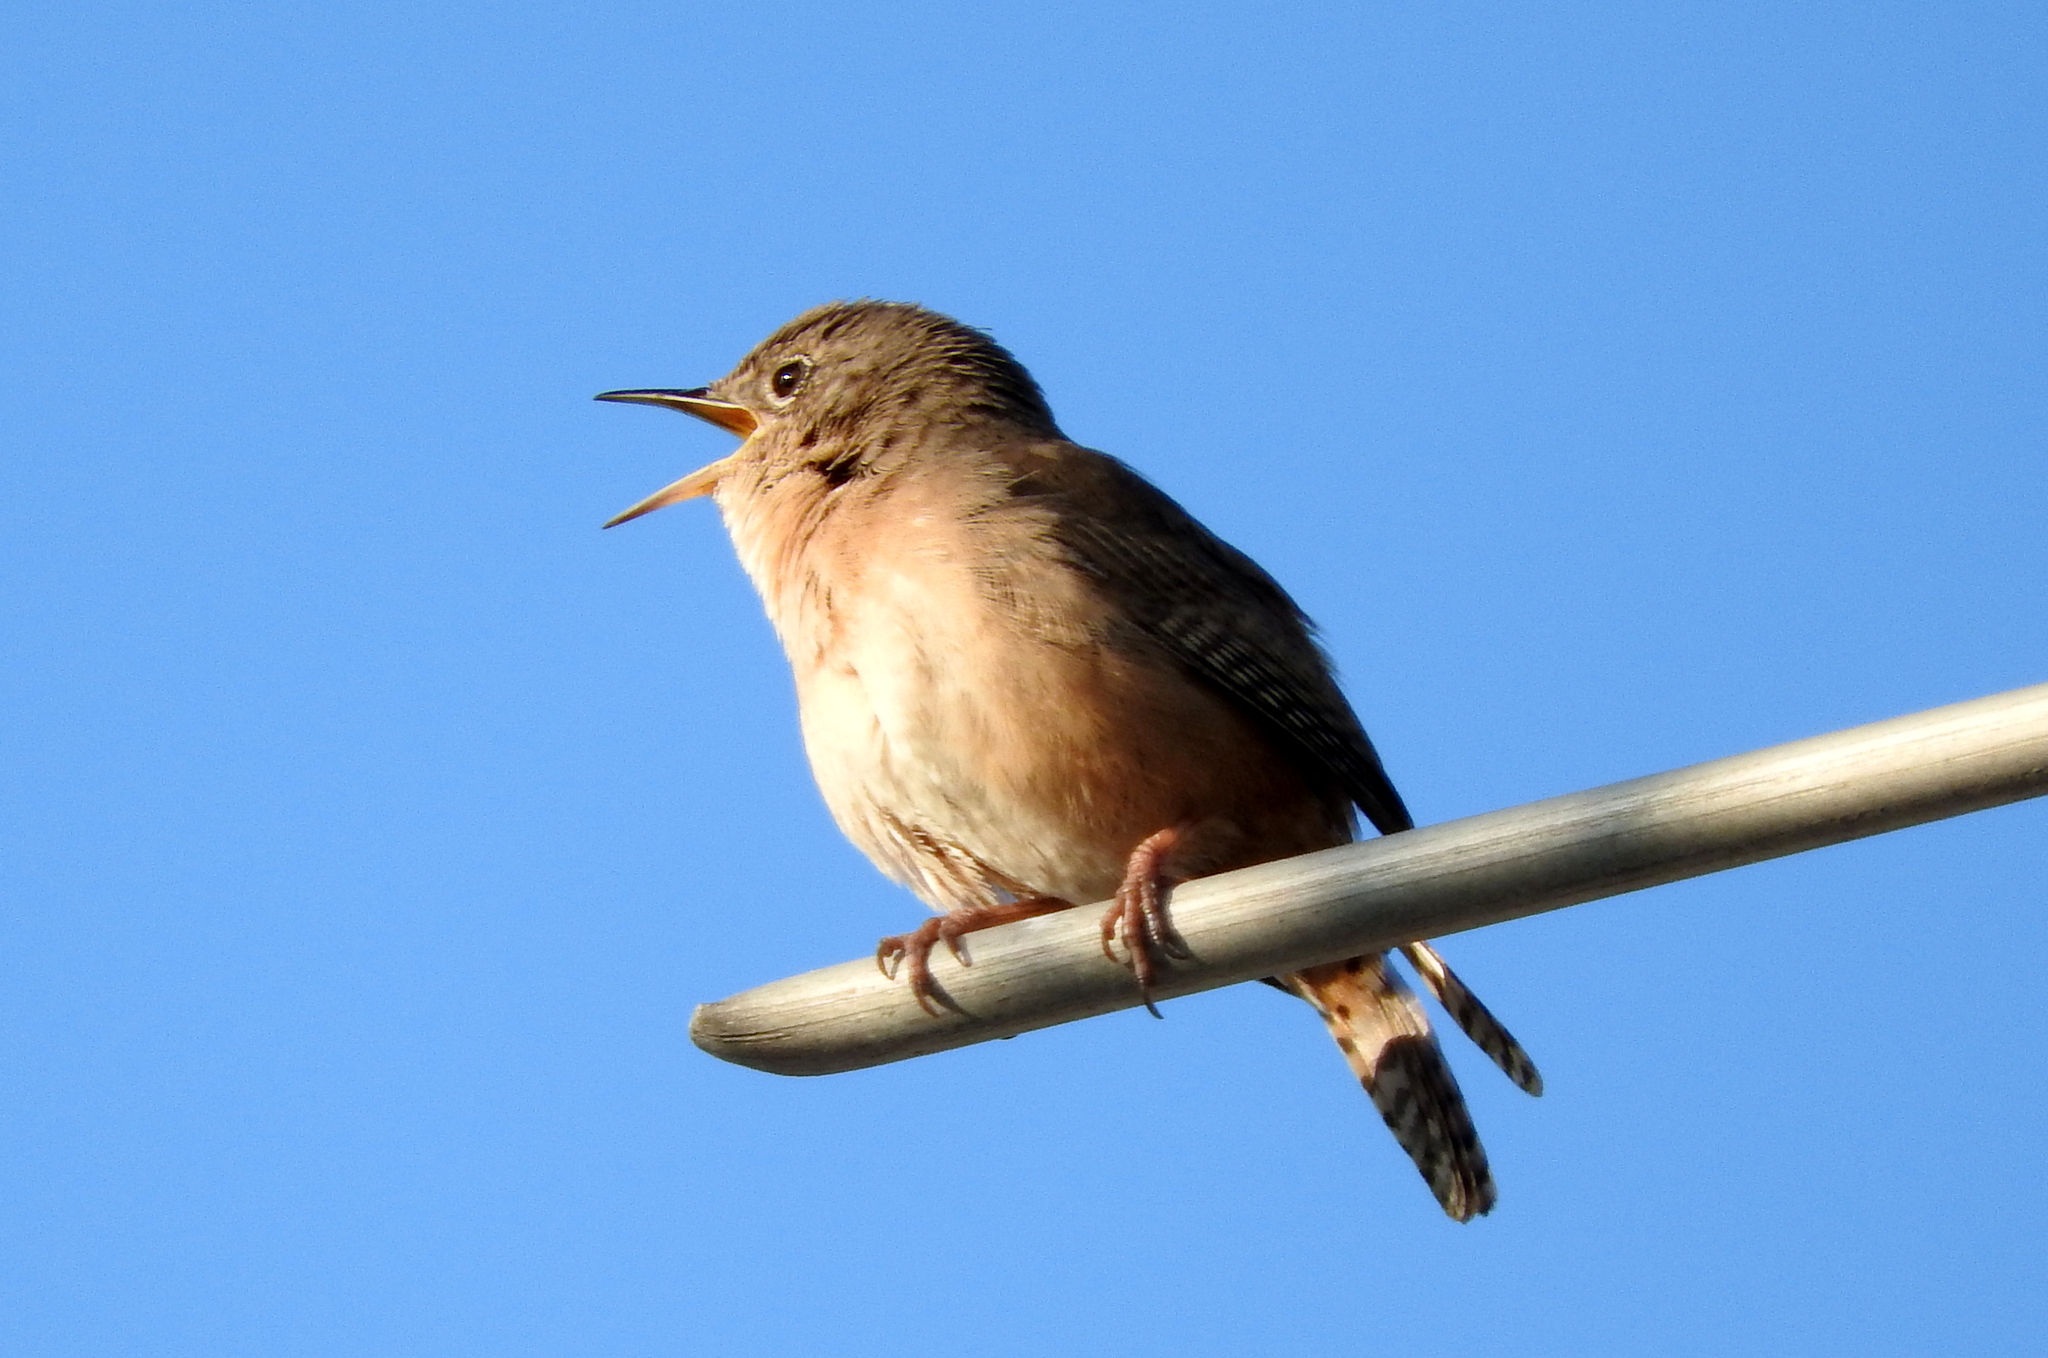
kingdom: Animalia
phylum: Chordata
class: Aves
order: Passeriformes
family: Troglodytidae
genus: Troglodytes
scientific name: Troglodytes aedon
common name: House wren
